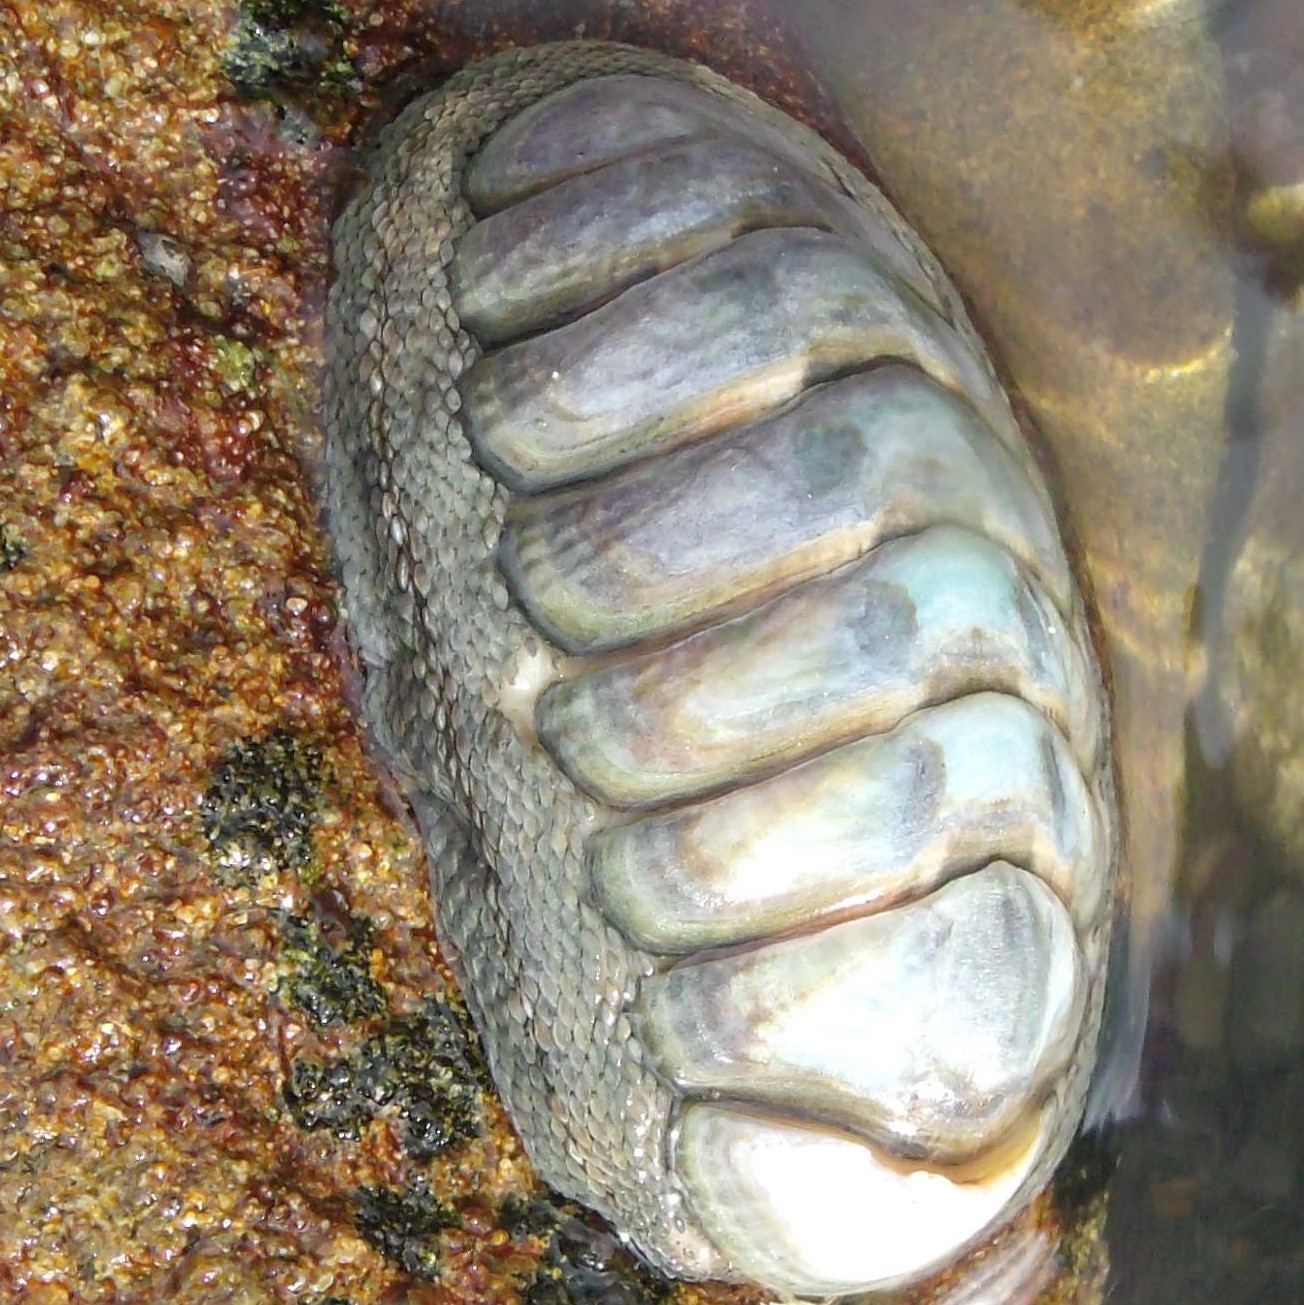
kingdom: Animalia
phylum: Mollusca
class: Polyplacophora
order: Chitonida
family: Chitonidae
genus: Chiton
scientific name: Chiton glaucus
